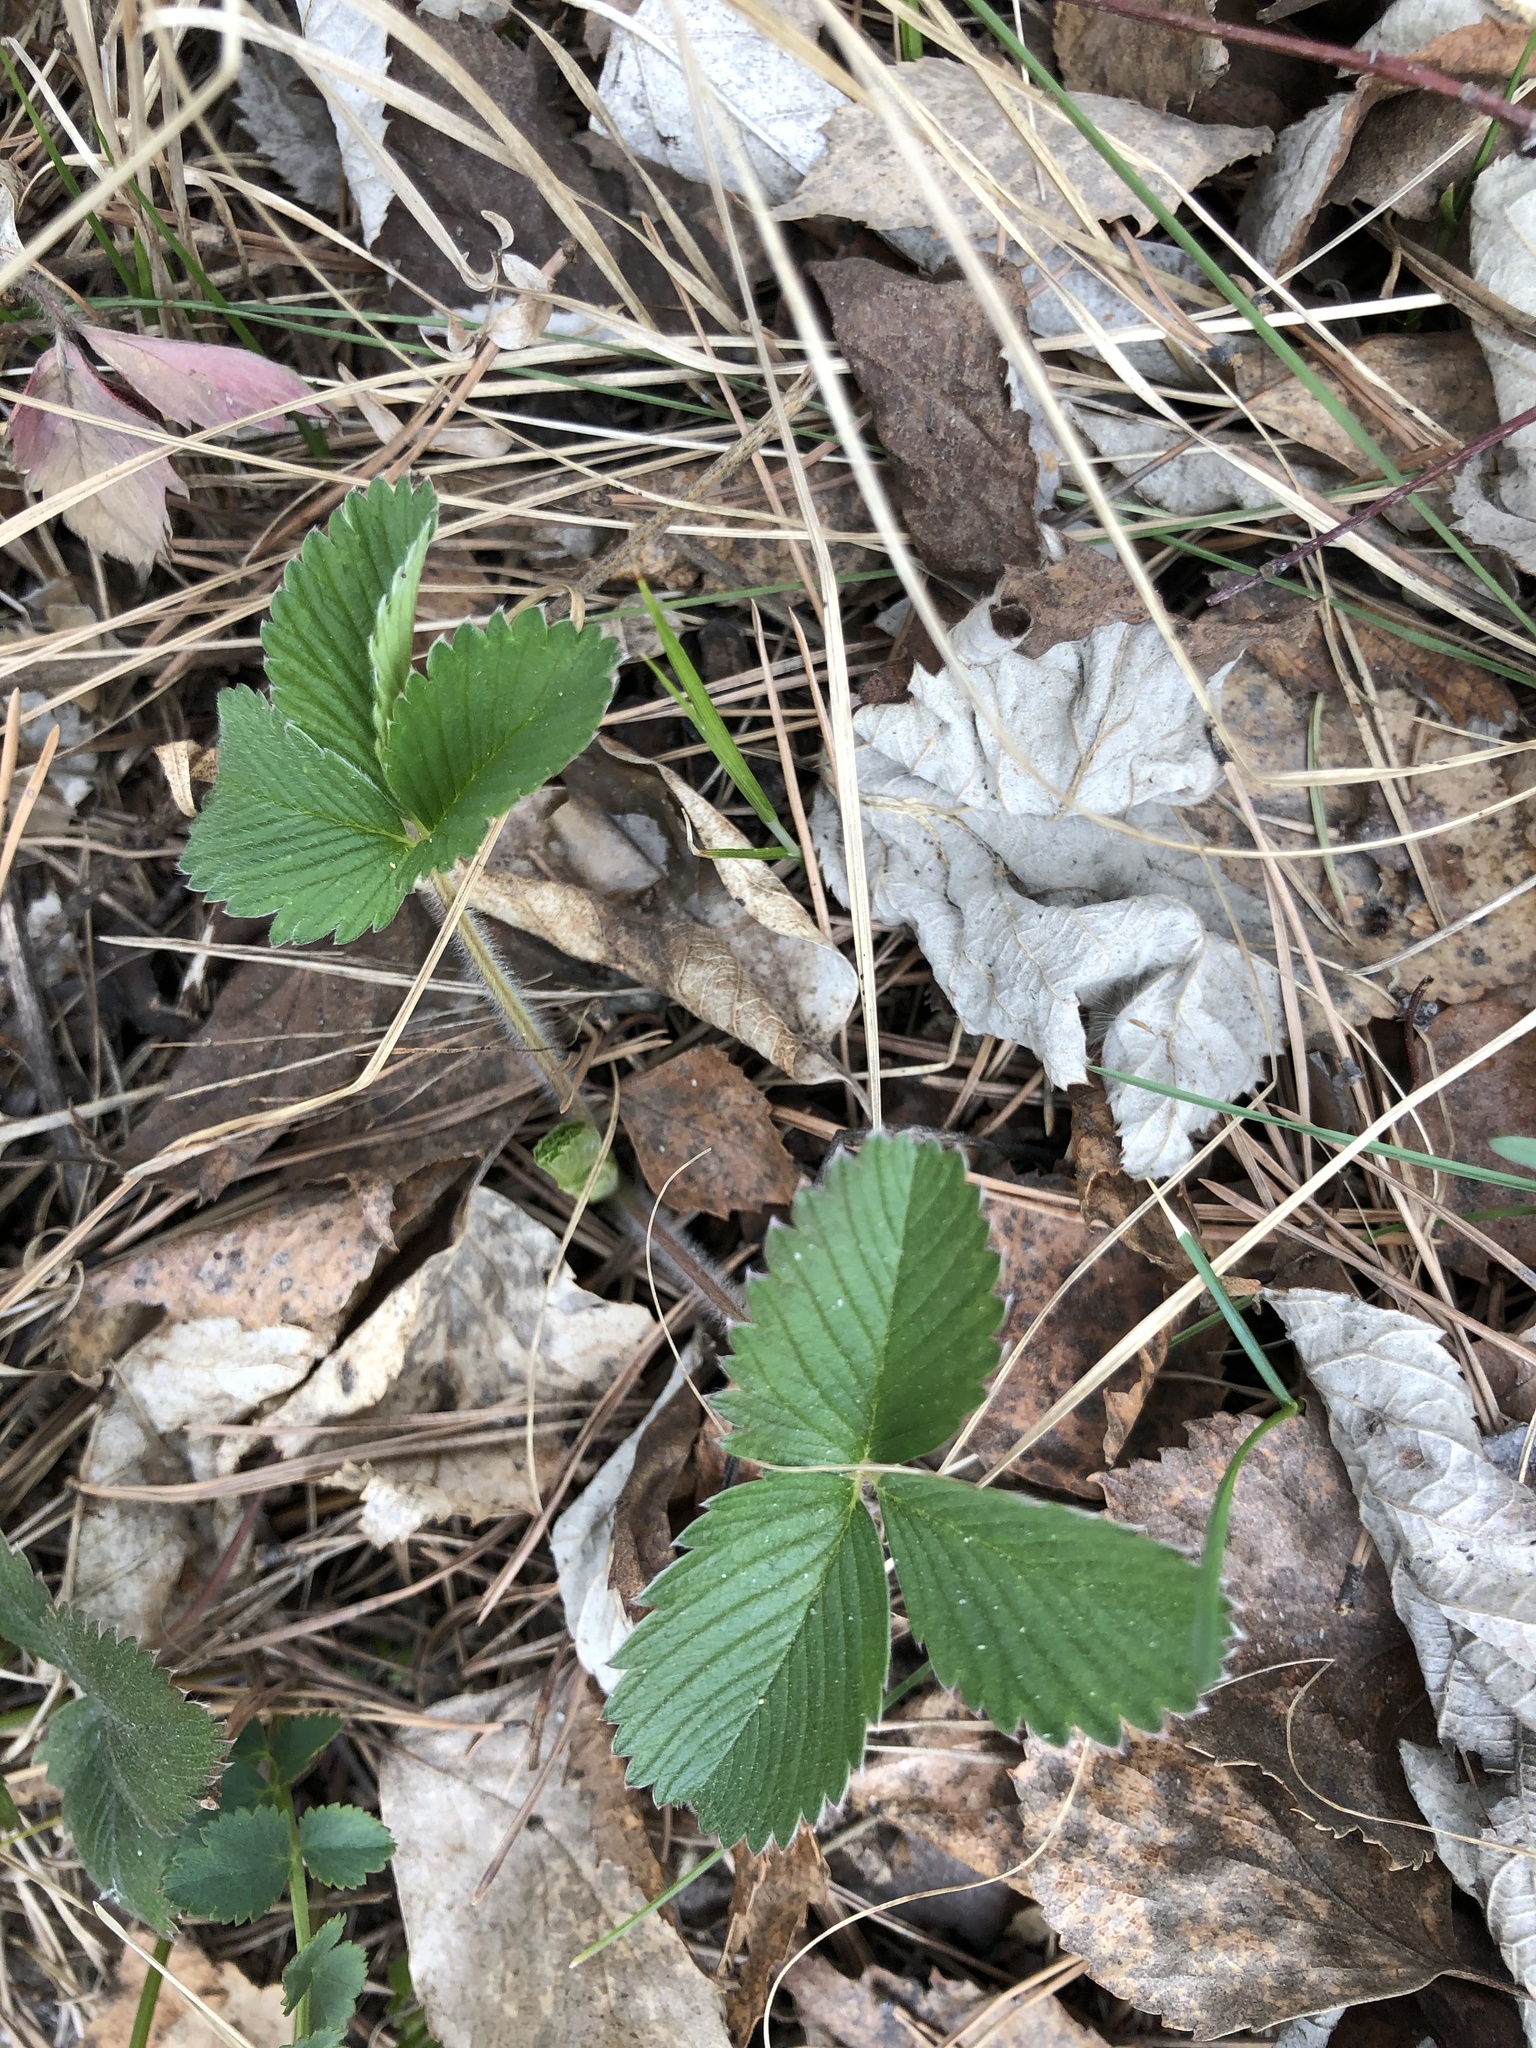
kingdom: Plantae
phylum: Tracheophyta
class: Magnoliopsida
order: Rosales
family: Rosaceae
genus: Fragaria
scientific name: Fragaria viridis
